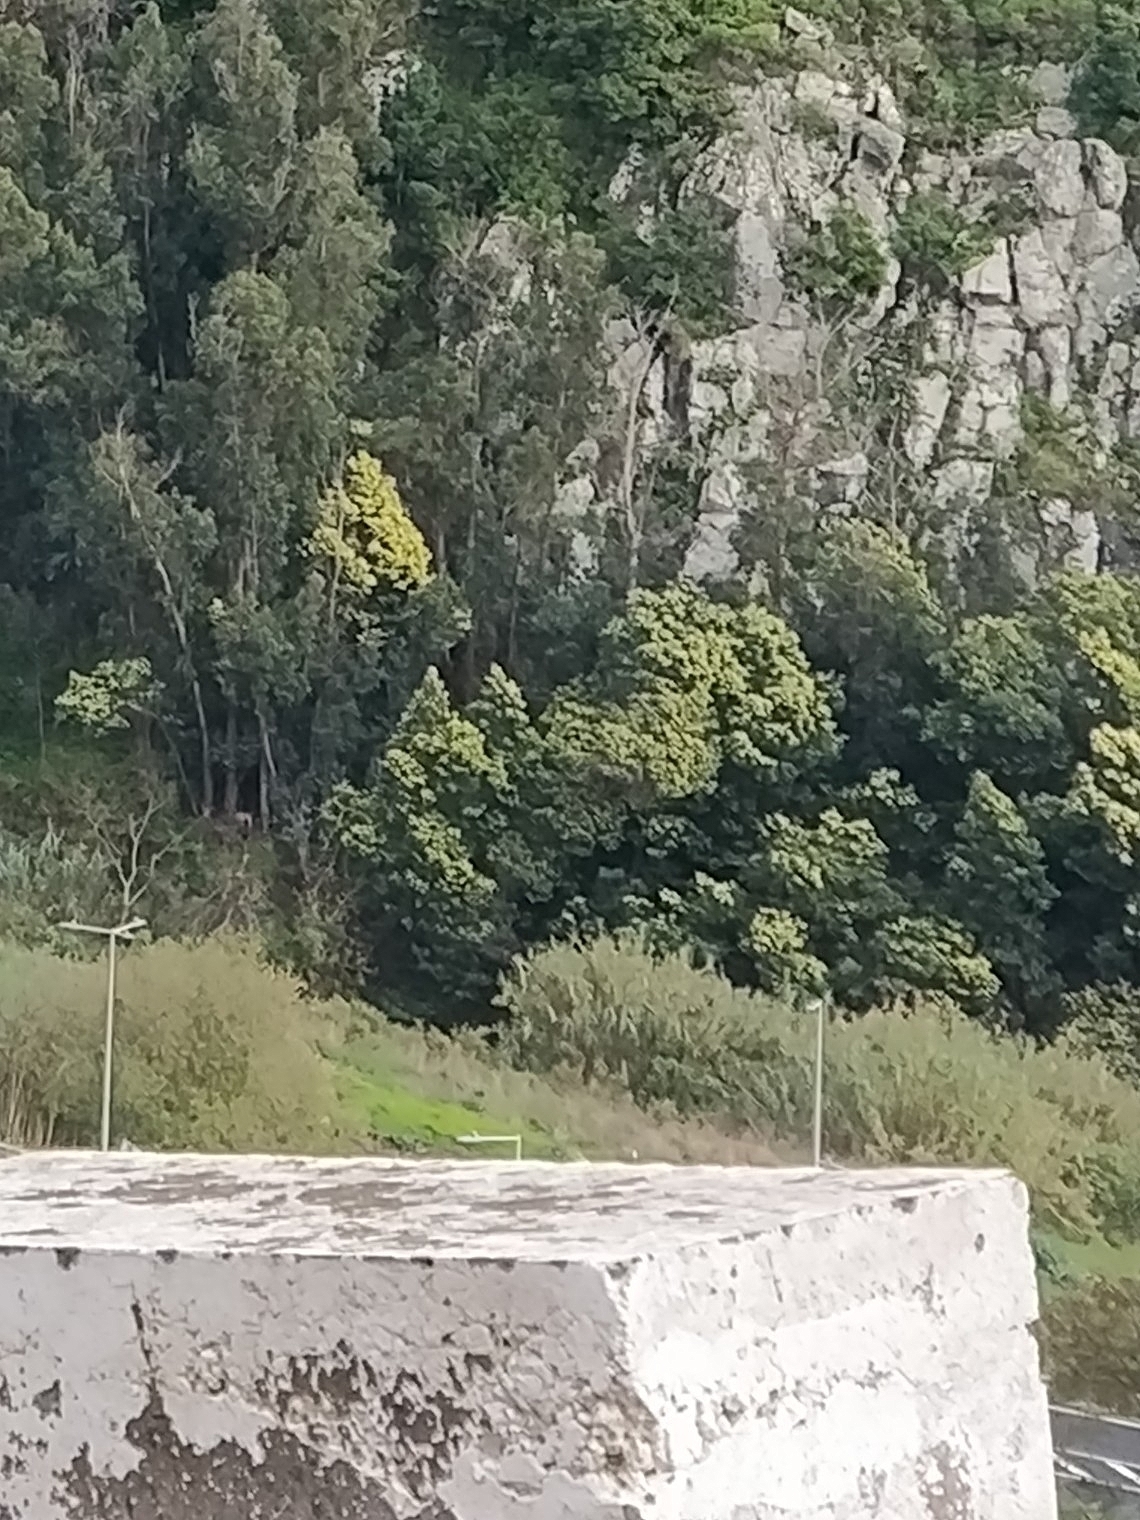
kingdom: Plantae
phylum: Tracheophyta
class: Magnoliopsida
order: Fabales
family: Fabaceae
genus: Acacia
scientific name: Acacia mearnsii
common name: Black wattle
